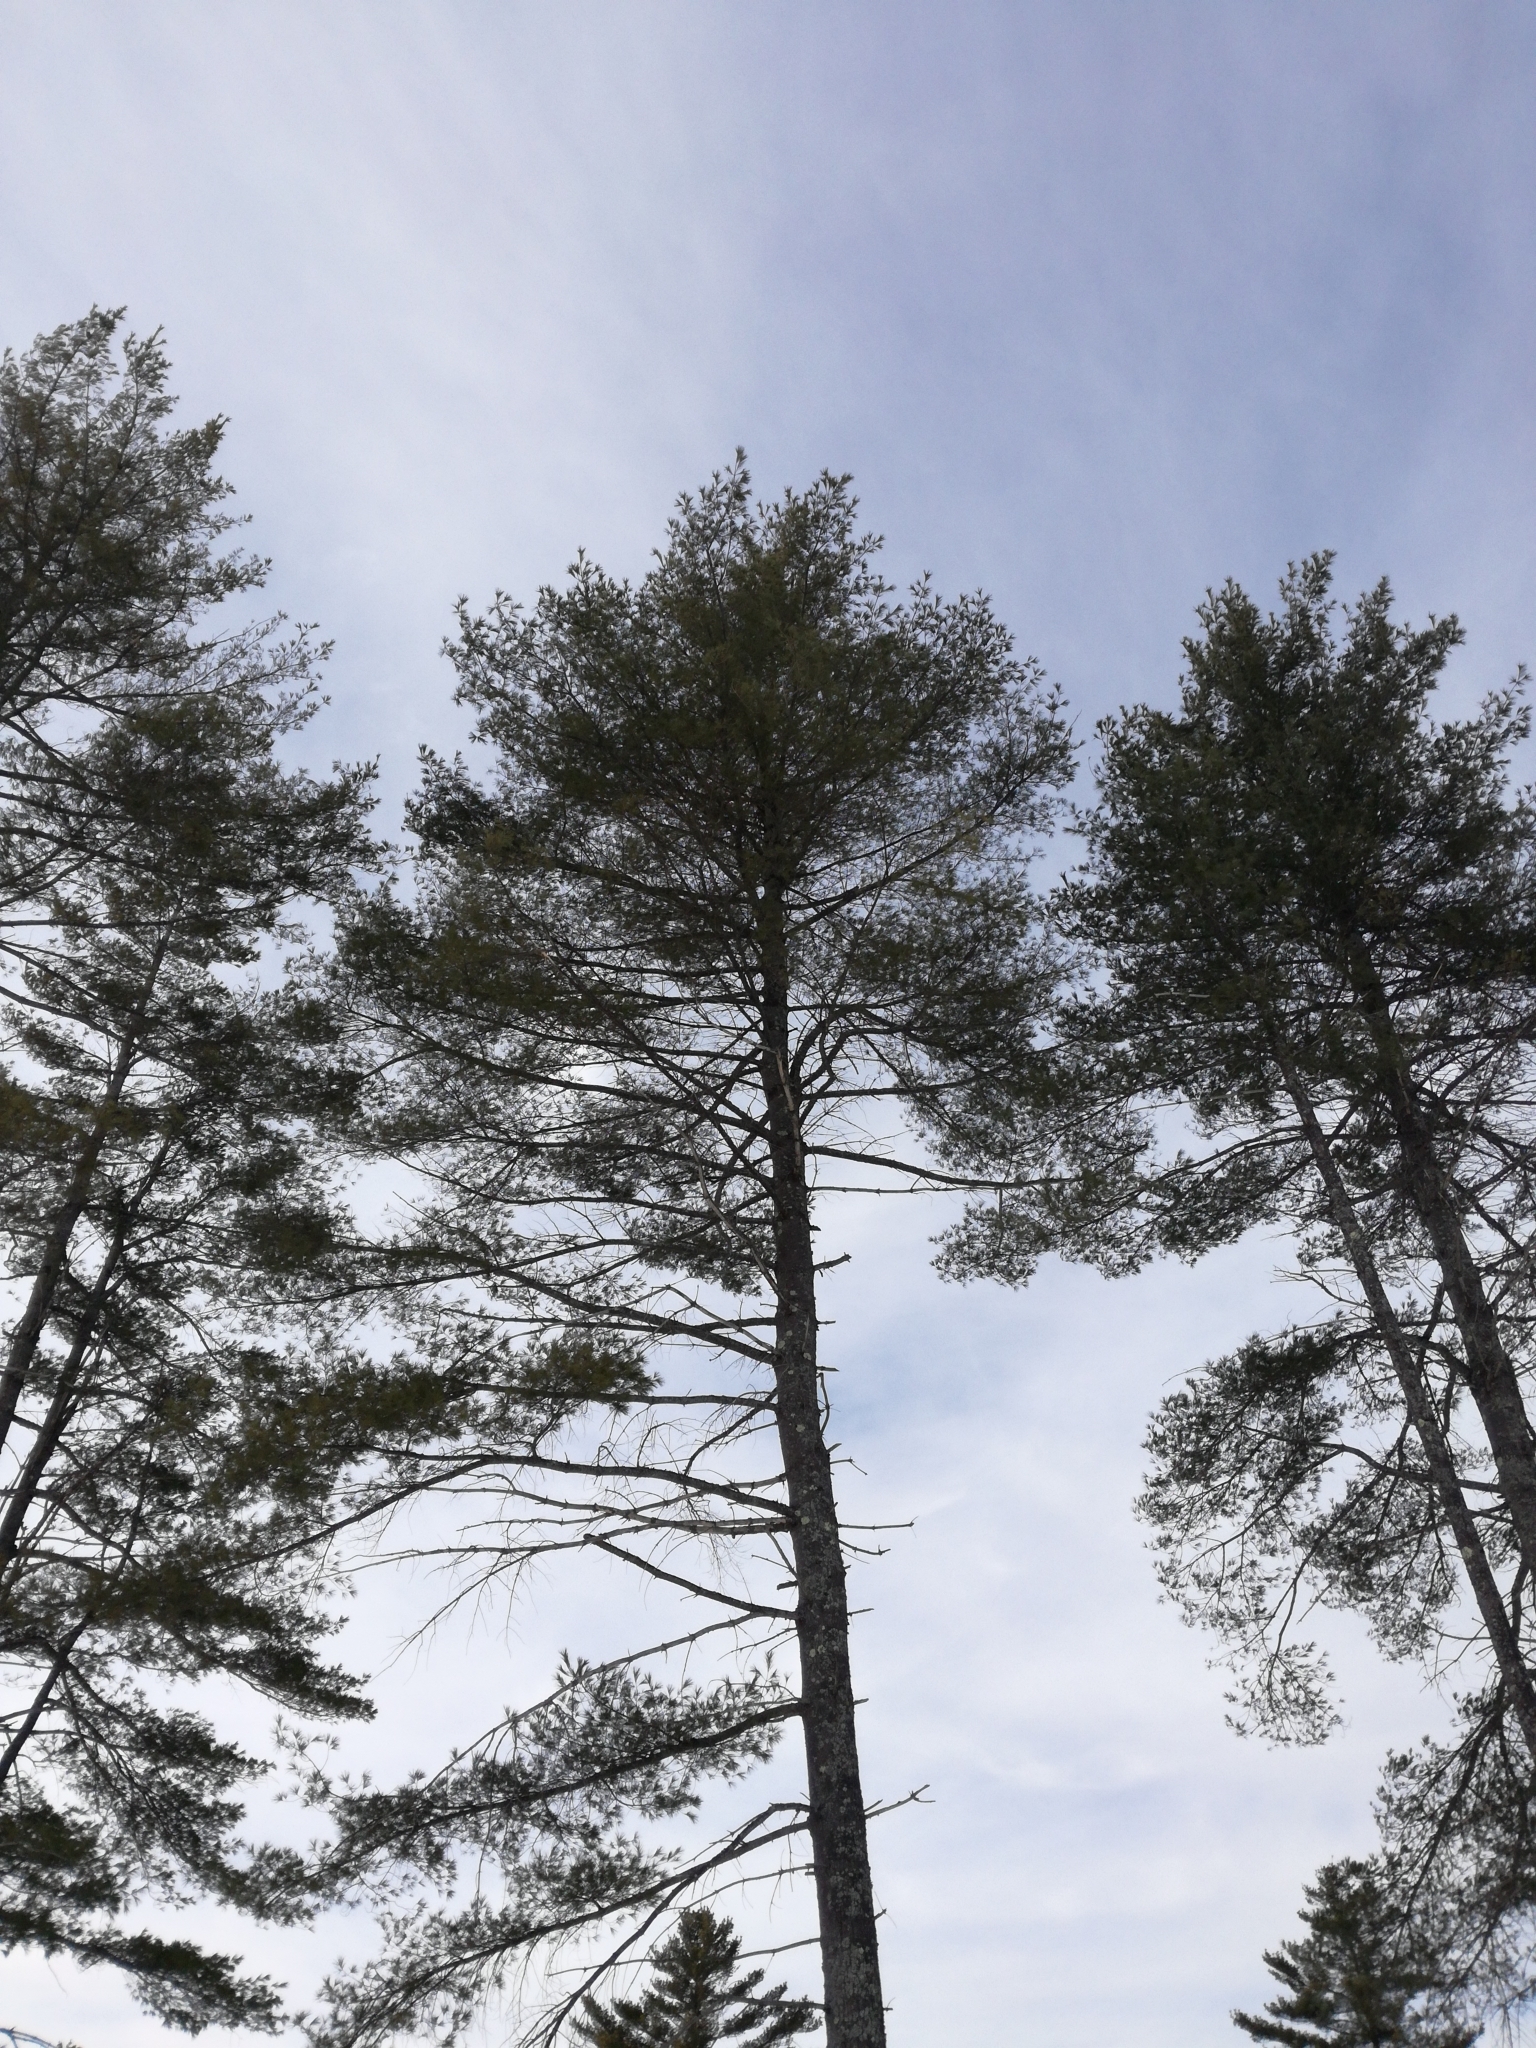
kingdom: Plantae
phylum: Tracheophyta
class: Pinopsida
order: Pinales
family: Pinaceae
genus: Pinus
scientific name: Pinus strobus
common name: Weymouth pine
